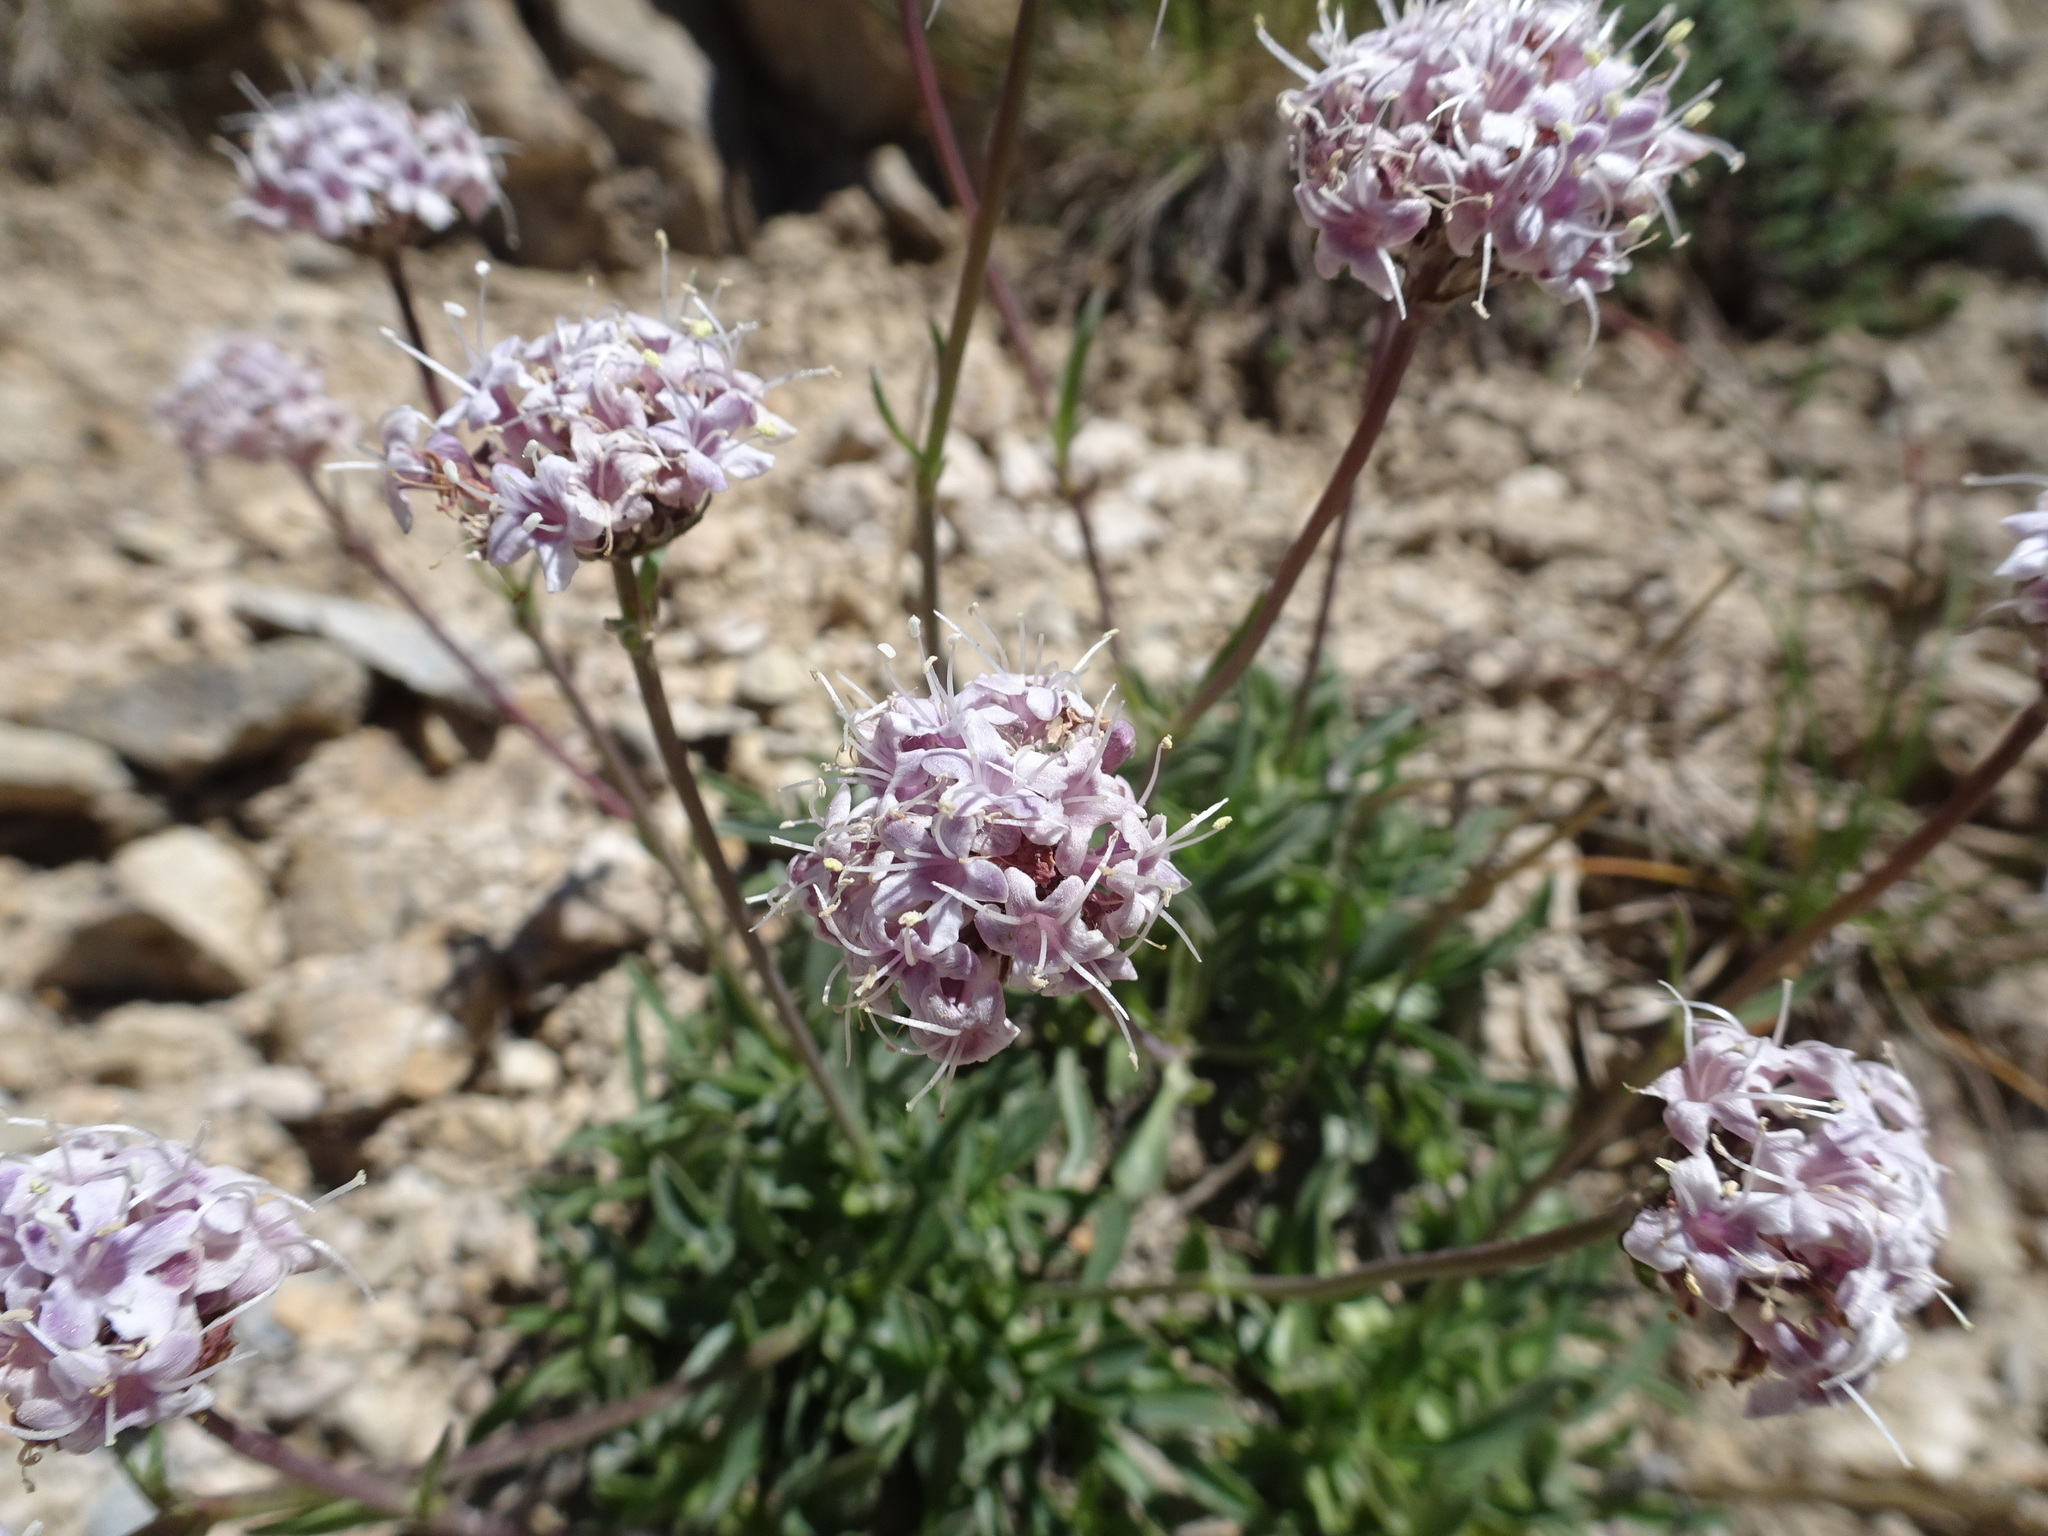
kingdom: Plantae
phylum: Tracheophyta
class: Magnoliopsida
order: Dipsacales
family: Caprifoliaceae
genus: Valeriana
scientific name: Valeriana saliunca
